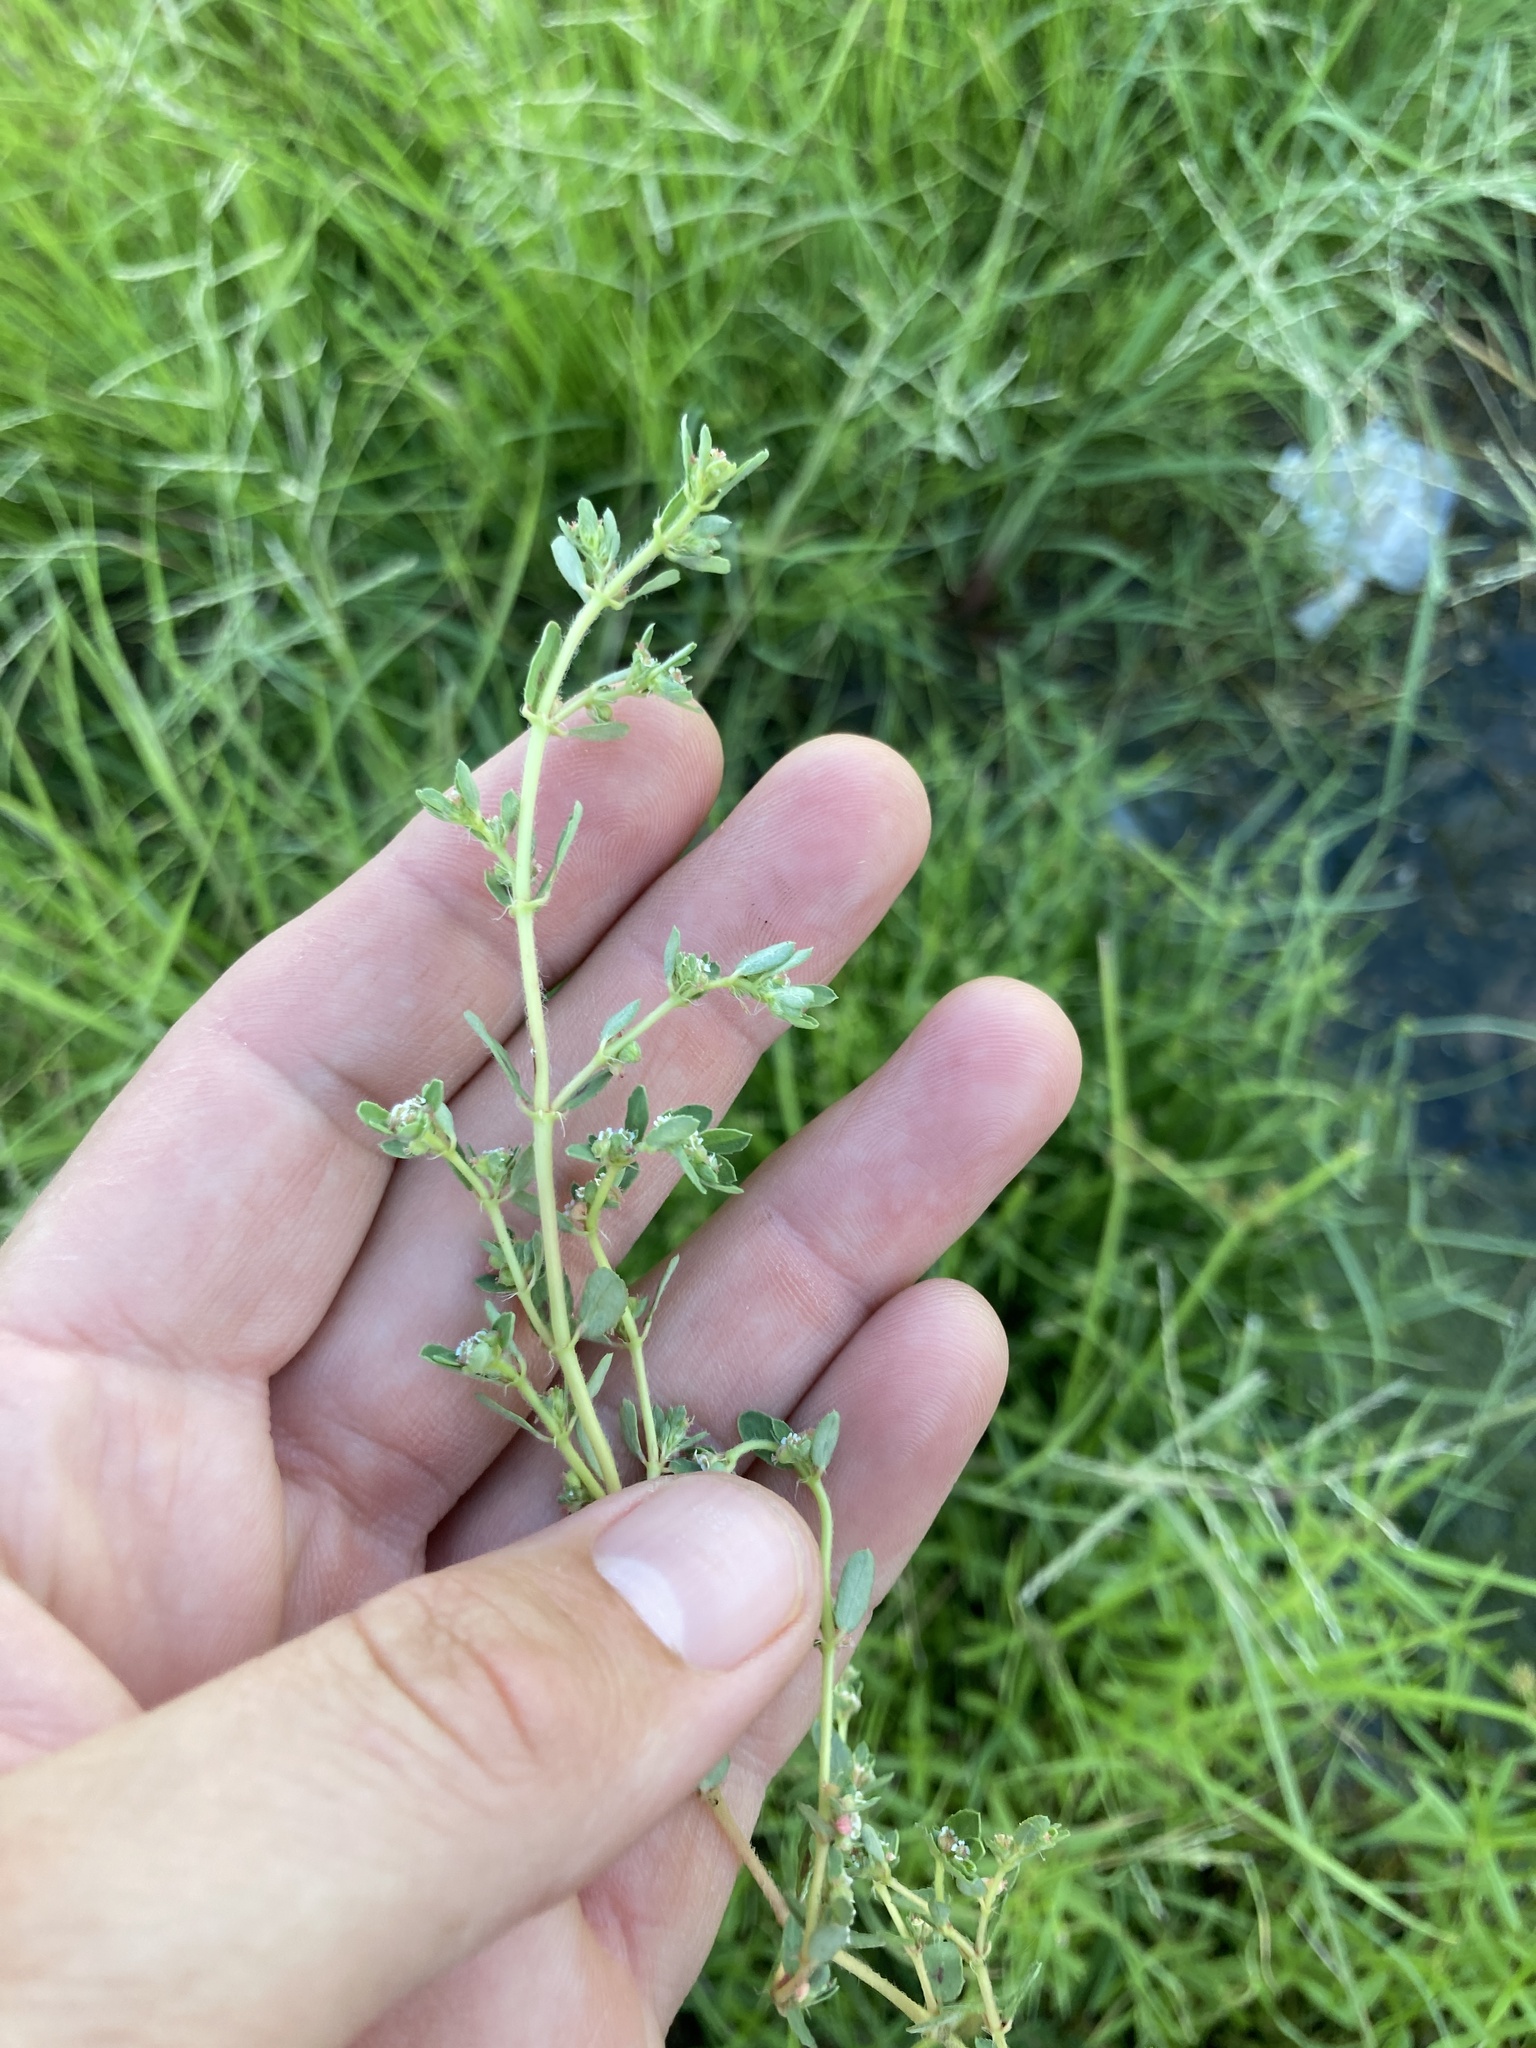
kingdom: Plantae
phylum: Tracheophyta
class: Magnoliopsida
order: Malpighiales
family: Euphorbiaceae
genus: Euphorbia
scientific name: Euphorbia maculata
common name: Spotted spurge
